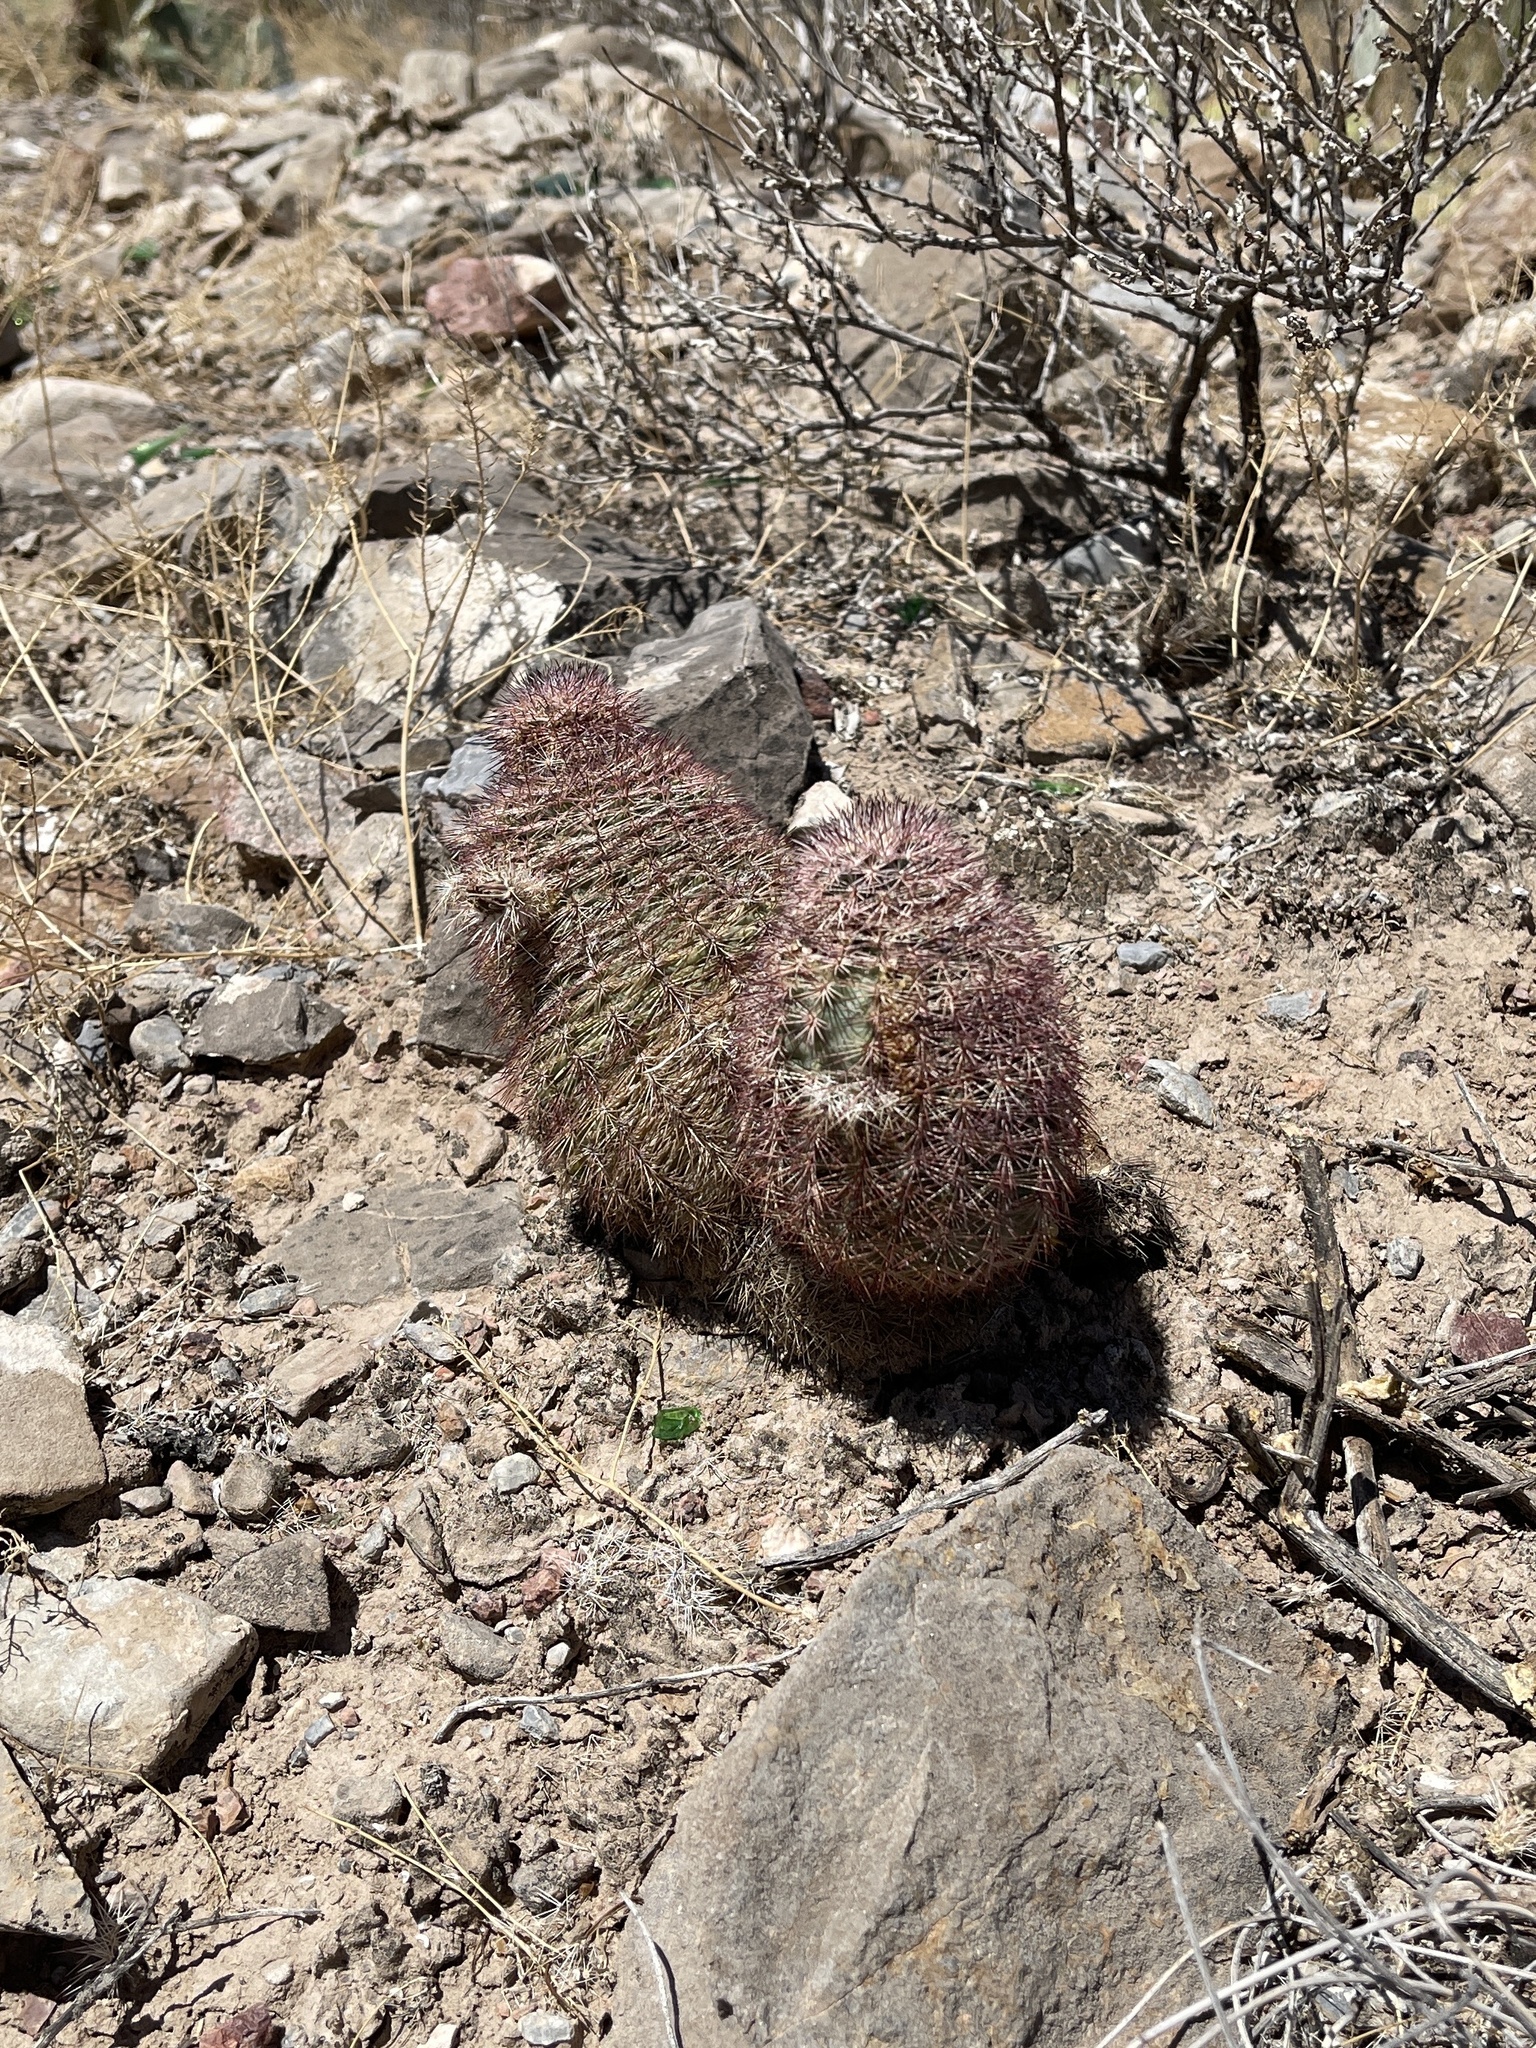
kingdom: Plantae
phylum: Tracheophyta
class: Magnoliopsida
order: Caryophyllales
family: Cactaceae
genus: Echinocereus
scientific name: Echinocereus dasyacanthus
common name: Spiny hedgehog cactus
